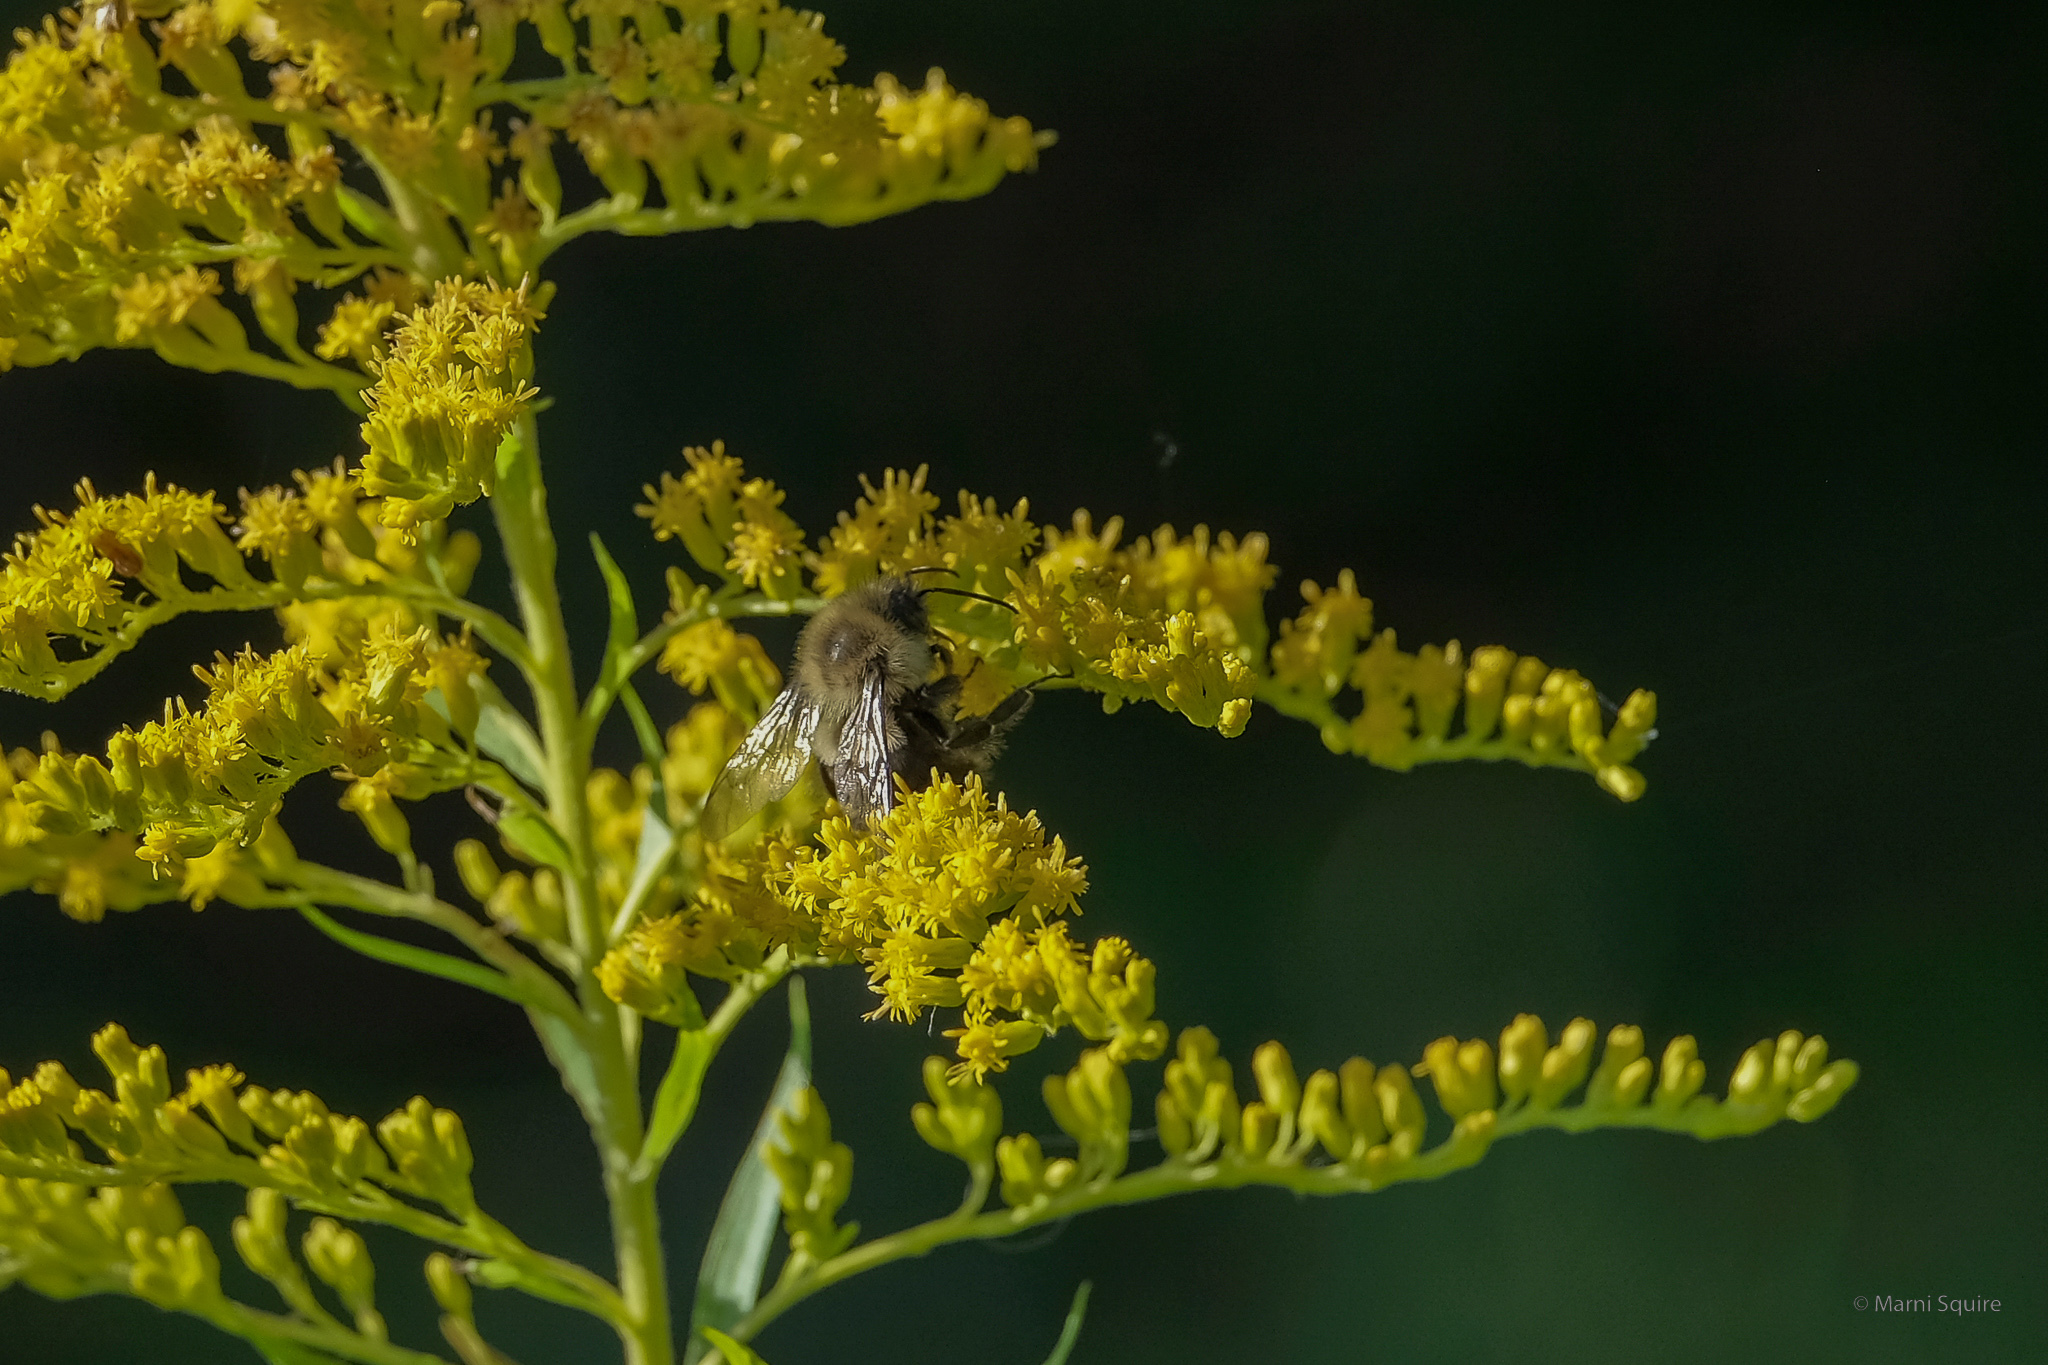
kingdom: Animalia
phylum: Arthropoda
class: Insecta
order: Hymenoptera
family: Apidae
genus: Bombus
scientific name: Bombus impatiens
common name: Common eastern bumble bee
